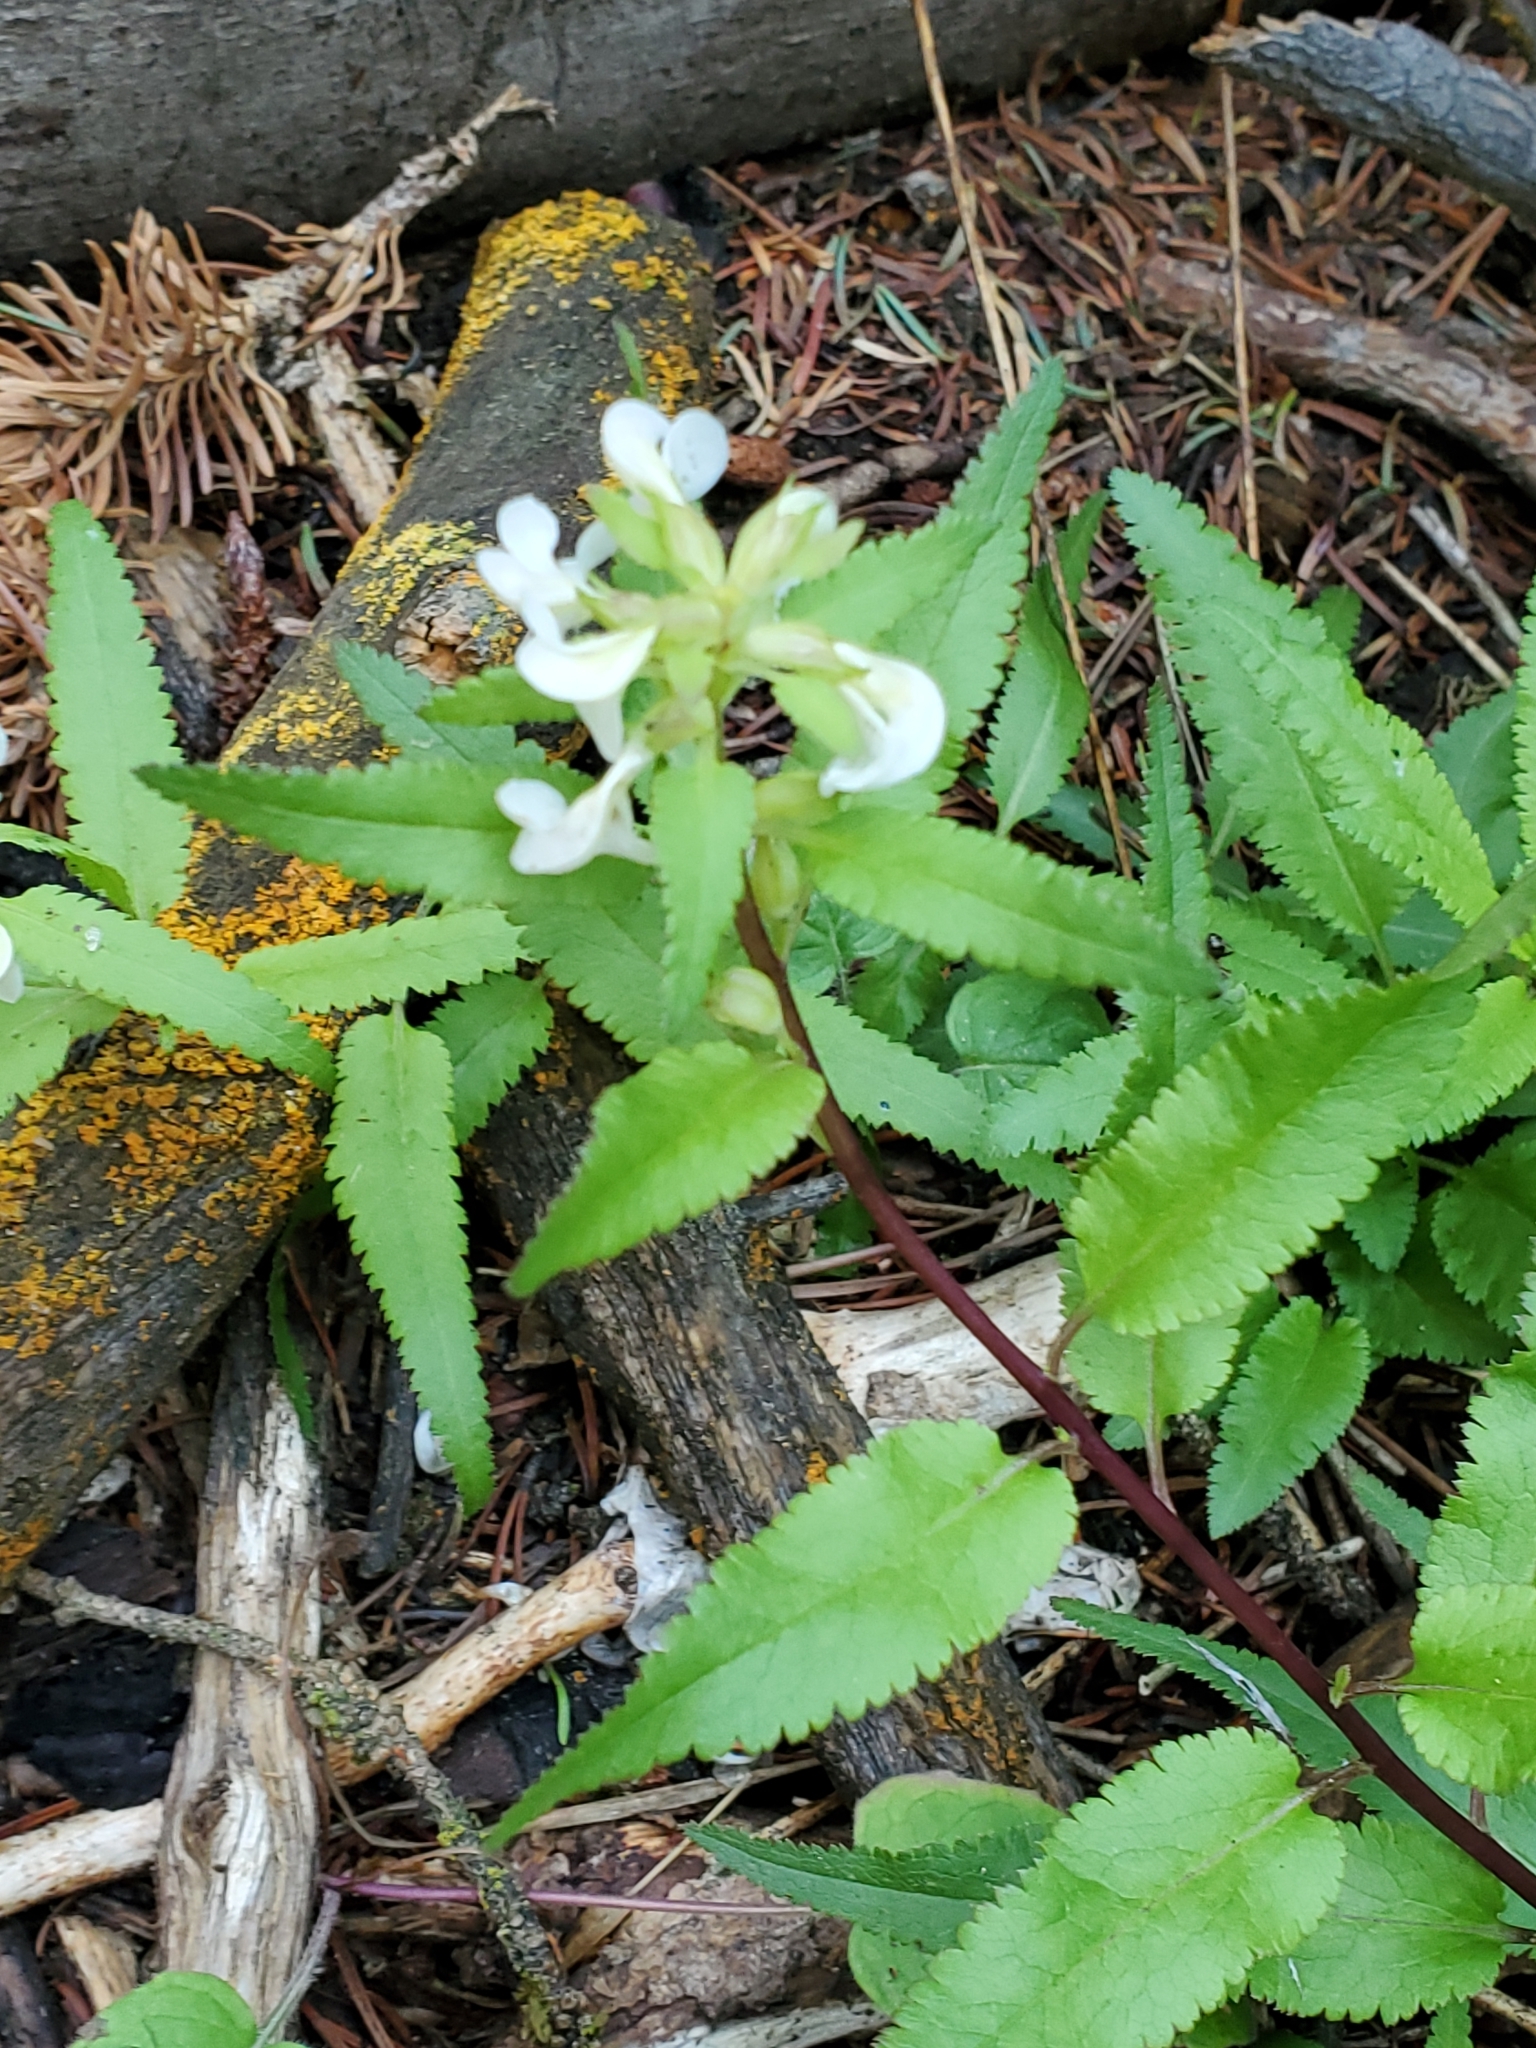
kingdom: Plantae
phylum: Tracheophyta
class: Magnoliopsida
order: Lamiales
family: Orobanchaceae
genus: Pedicularis
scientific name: Pedicularis racemosa
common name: Leafy lousewort
